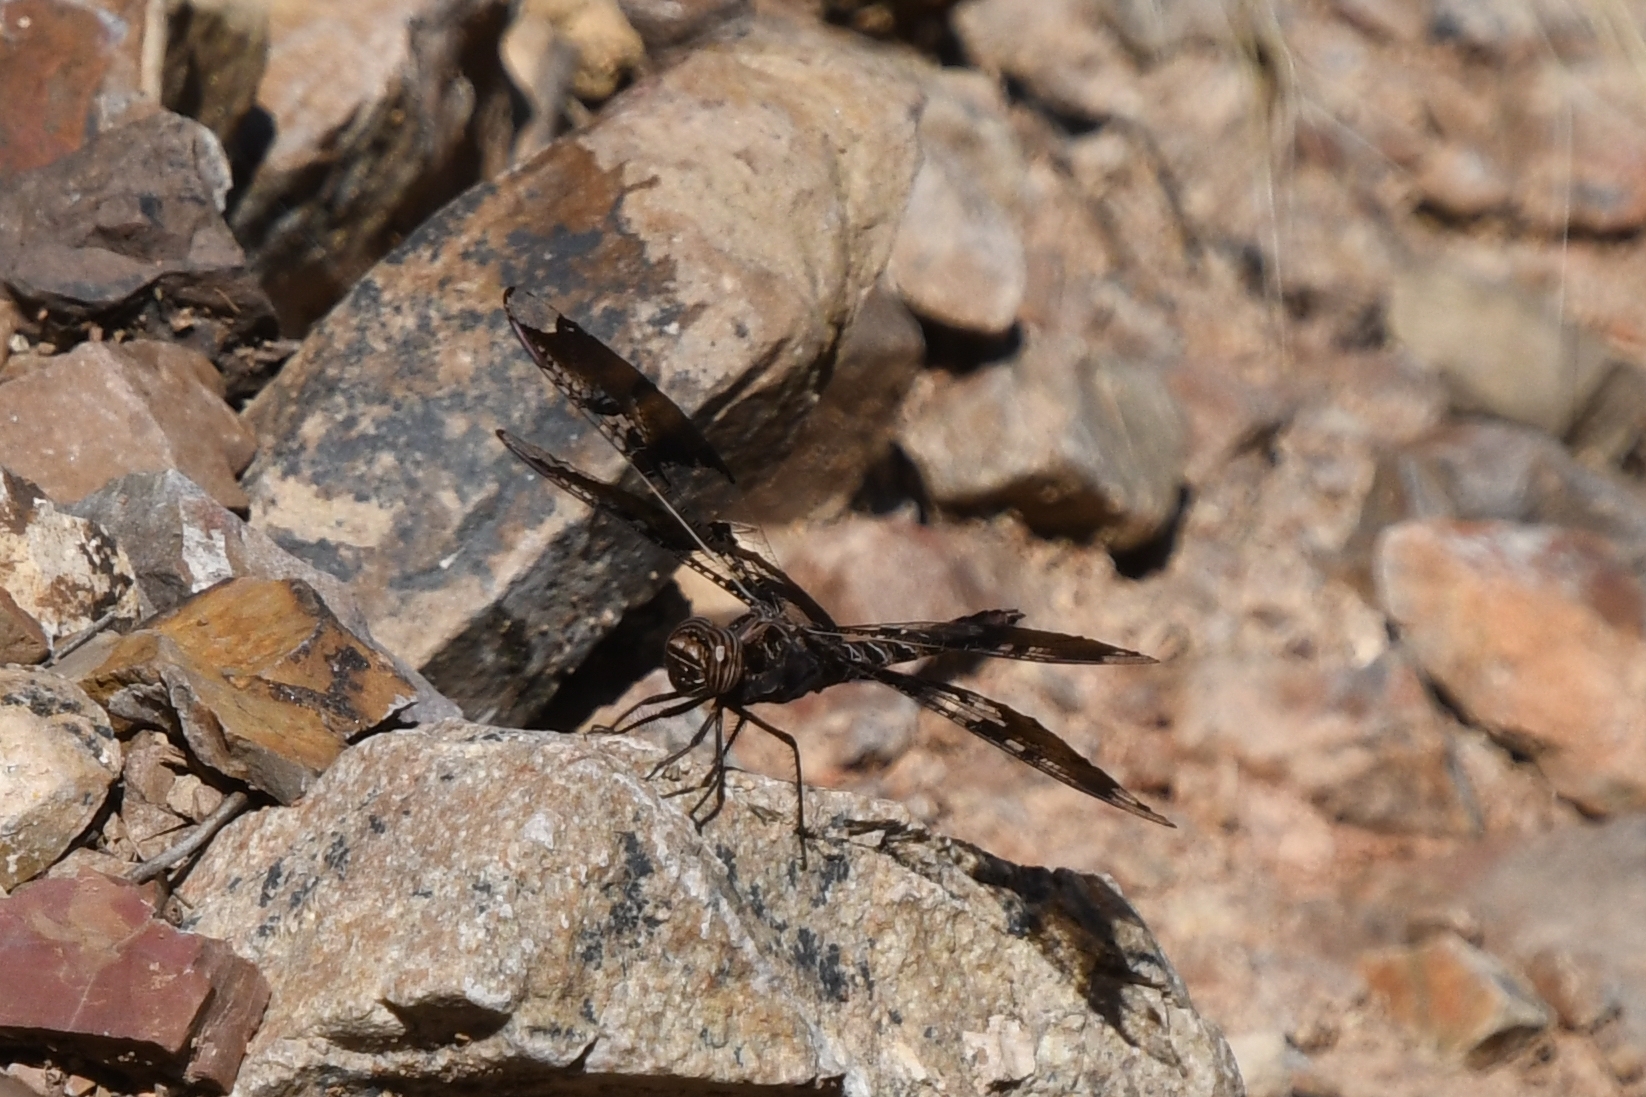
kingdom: Animalia
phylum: Arthropoda
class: Insecta
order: Odonata
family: Libellulidae
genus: Pseudoleon
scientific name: Pseudoleon superbus
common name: Filigree skimmer
